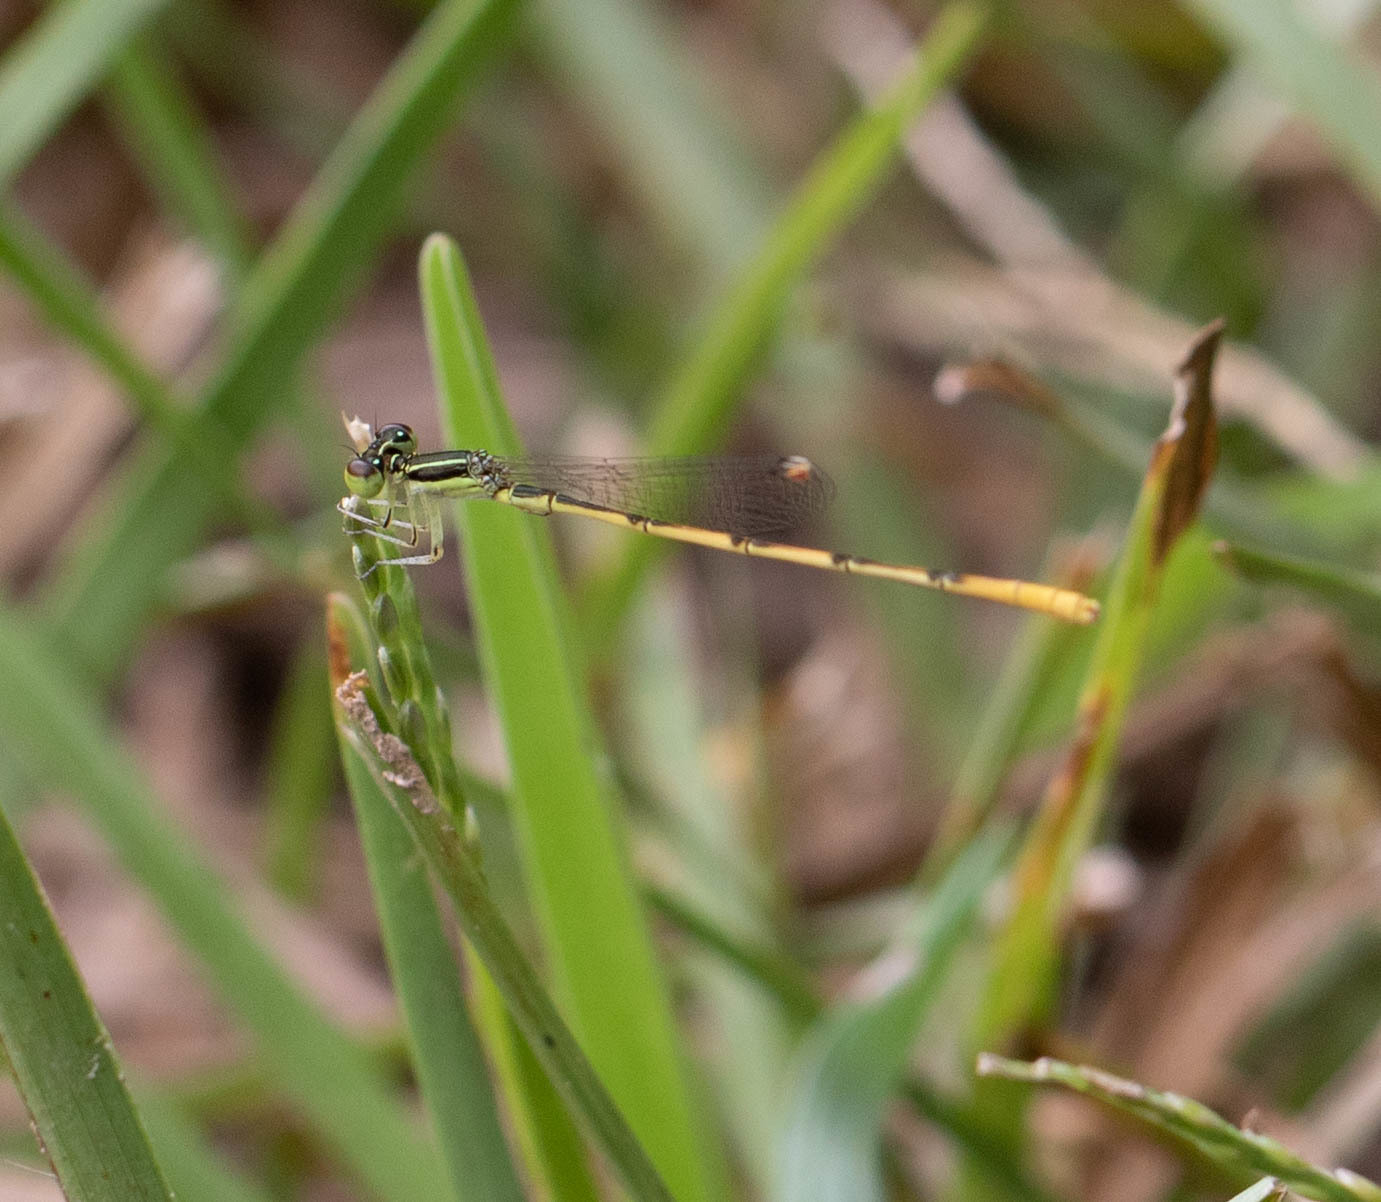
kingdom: Animalia
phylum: Arthropoda
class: Insecta
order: Odonata
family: Coenagrionidae
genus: Ischnura
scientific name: Ischnura hastata
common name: Citrine forktail
